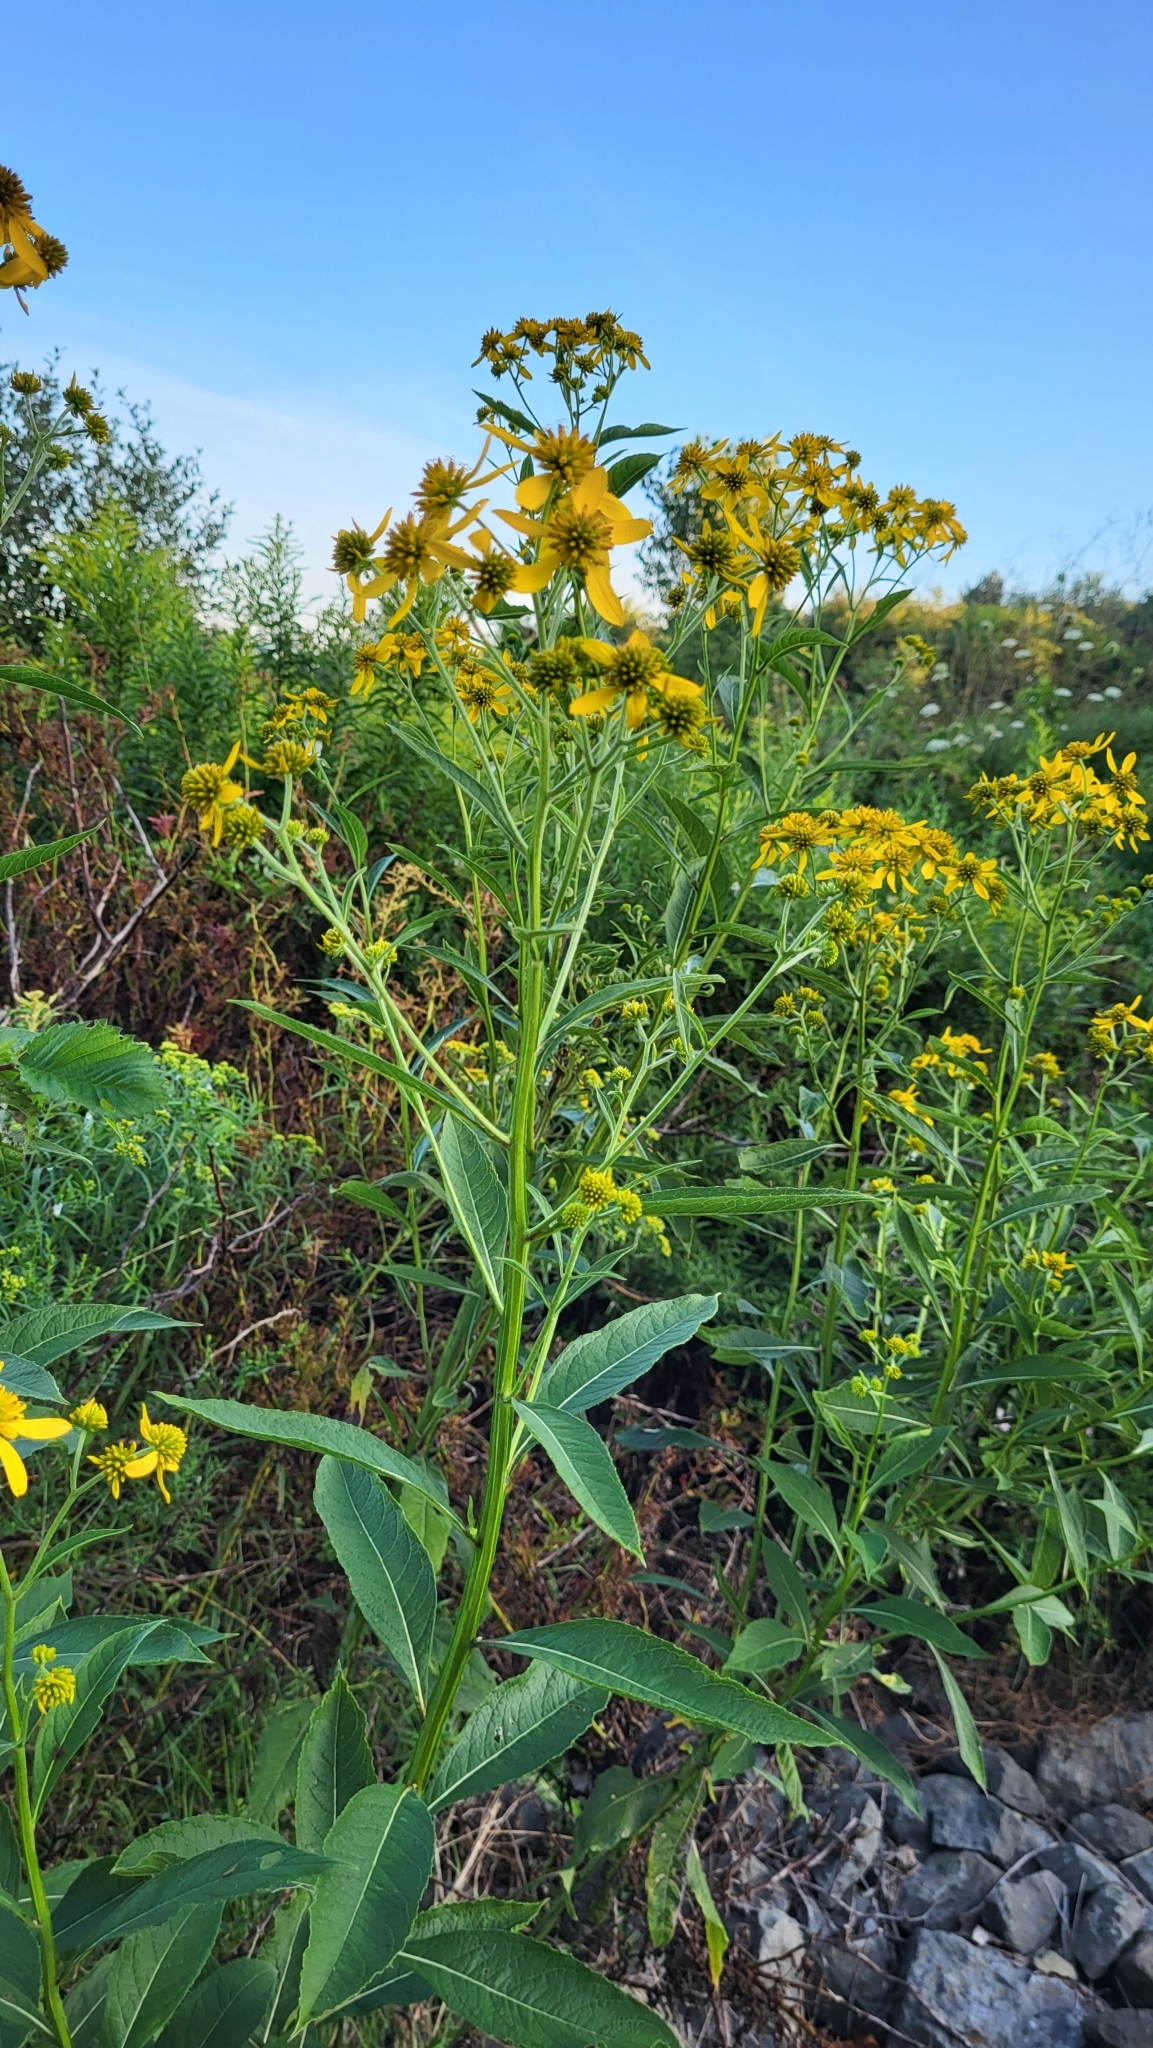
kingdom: Plantae
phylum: Tracheophyta
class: Magnoliopsida
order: Asterales
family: Asteraceae
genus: Verbesina
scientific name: Verbesina alternifolia
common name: Wingstem
